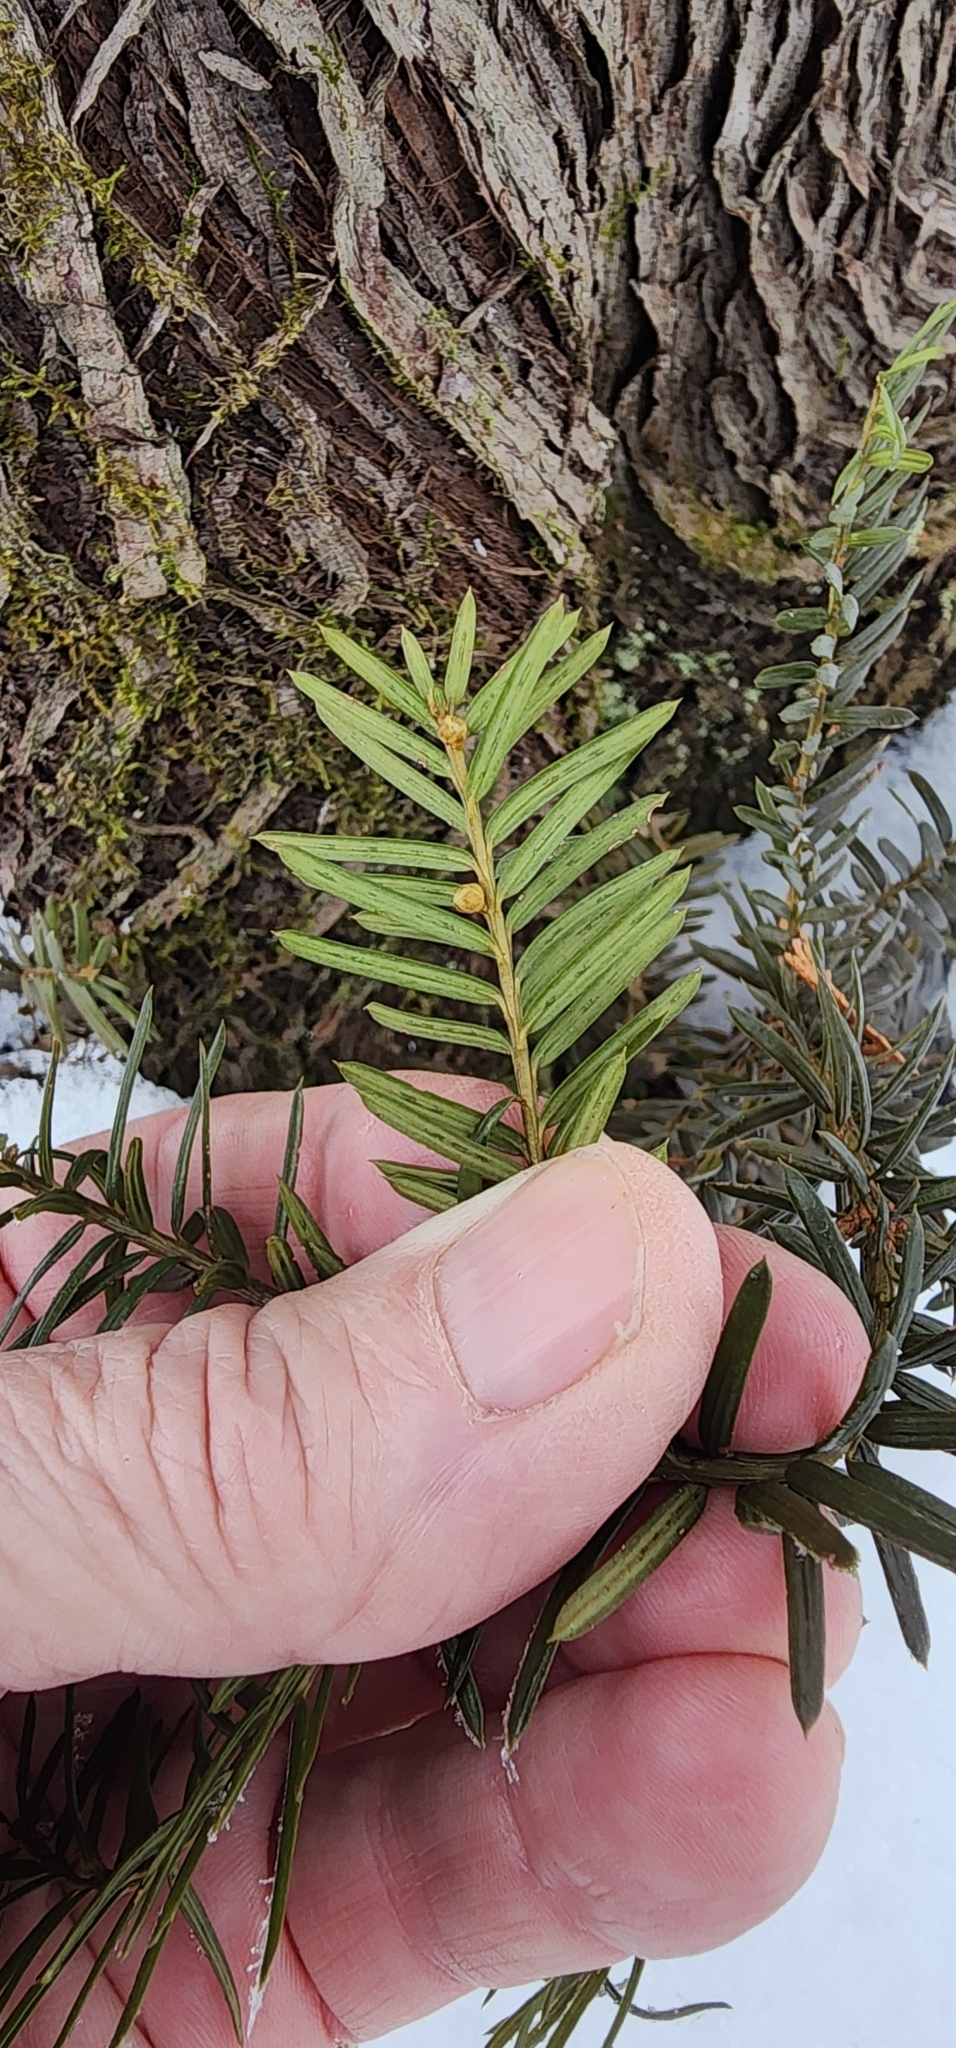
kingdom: Plantae
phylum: Tracheophyta
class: Pinopsida
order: Pinales
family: Taxaceae
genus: Taxus
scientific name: Taxus canadensis
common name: American yew
